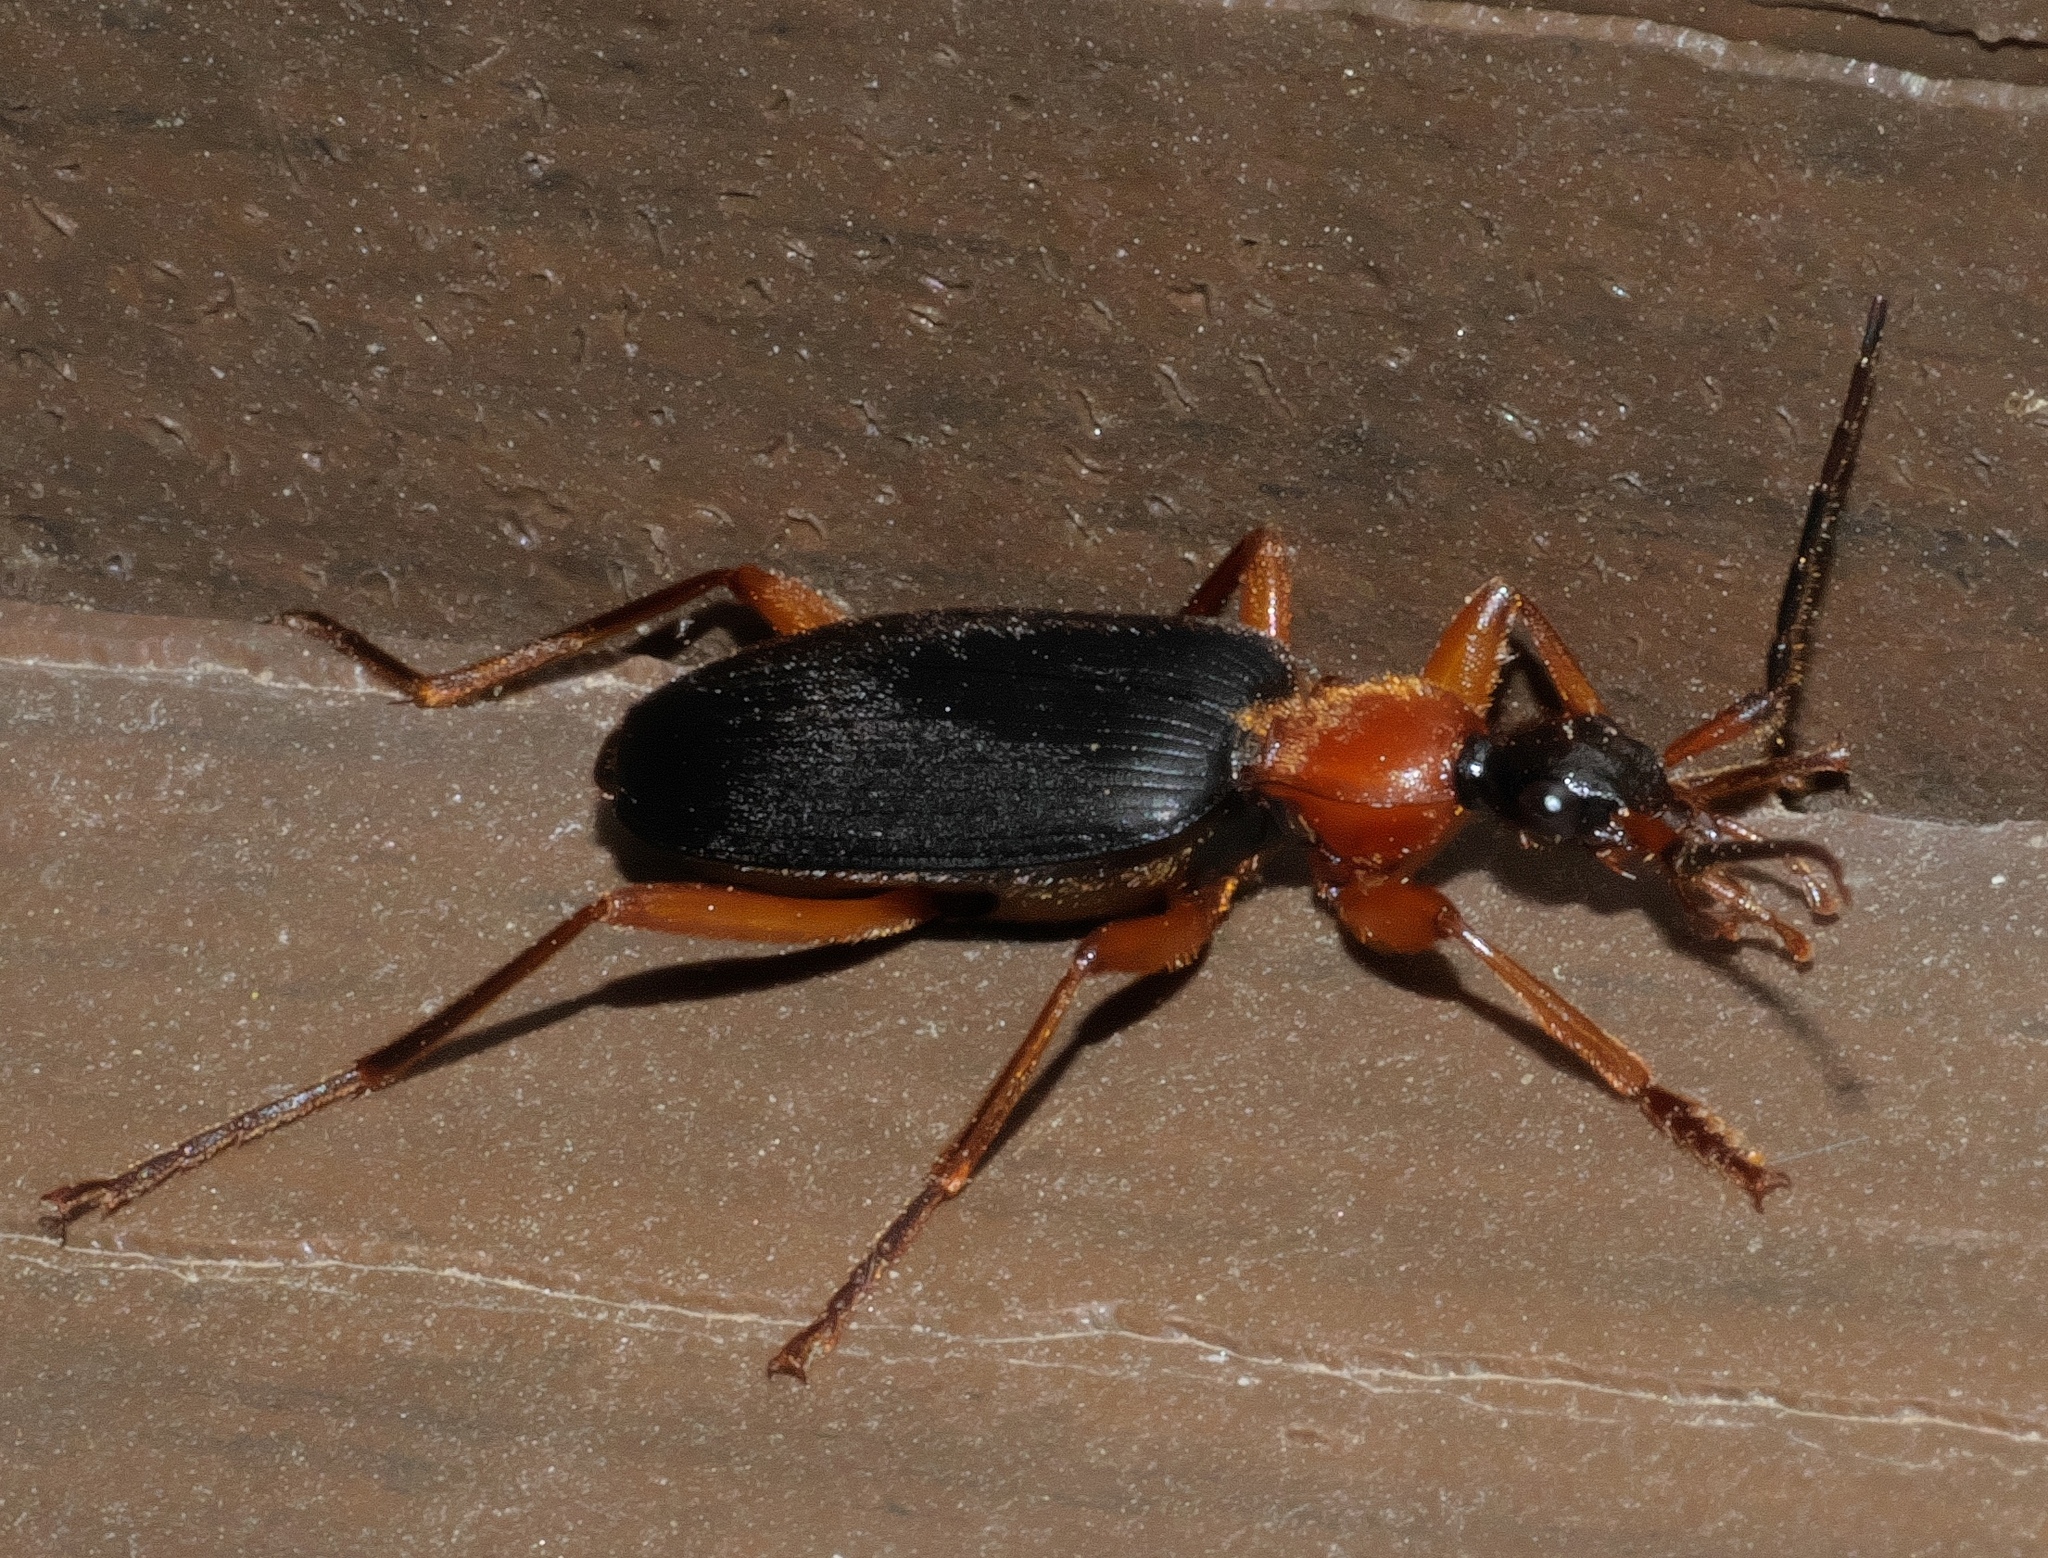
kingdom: Animalia
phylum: Arthropoda
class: Insecta
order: Coleoptera
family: Carabidae
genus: Galerita
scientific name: Galerita bicolor
